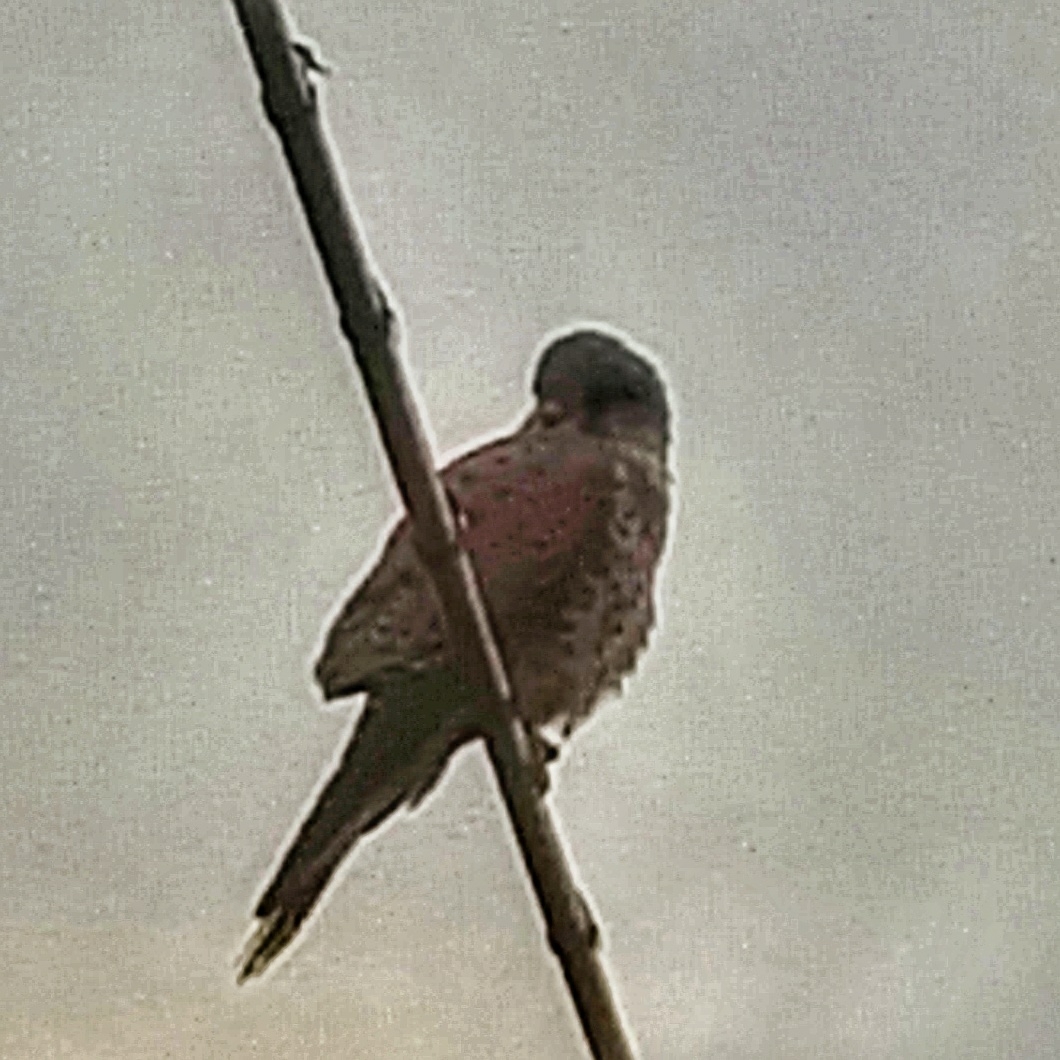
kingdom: Animalia
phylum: Chordata
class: Aves
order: Falconiformes
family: Falconidae
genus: Falco
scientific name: Falco tinnunculus
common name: Common kestrel
